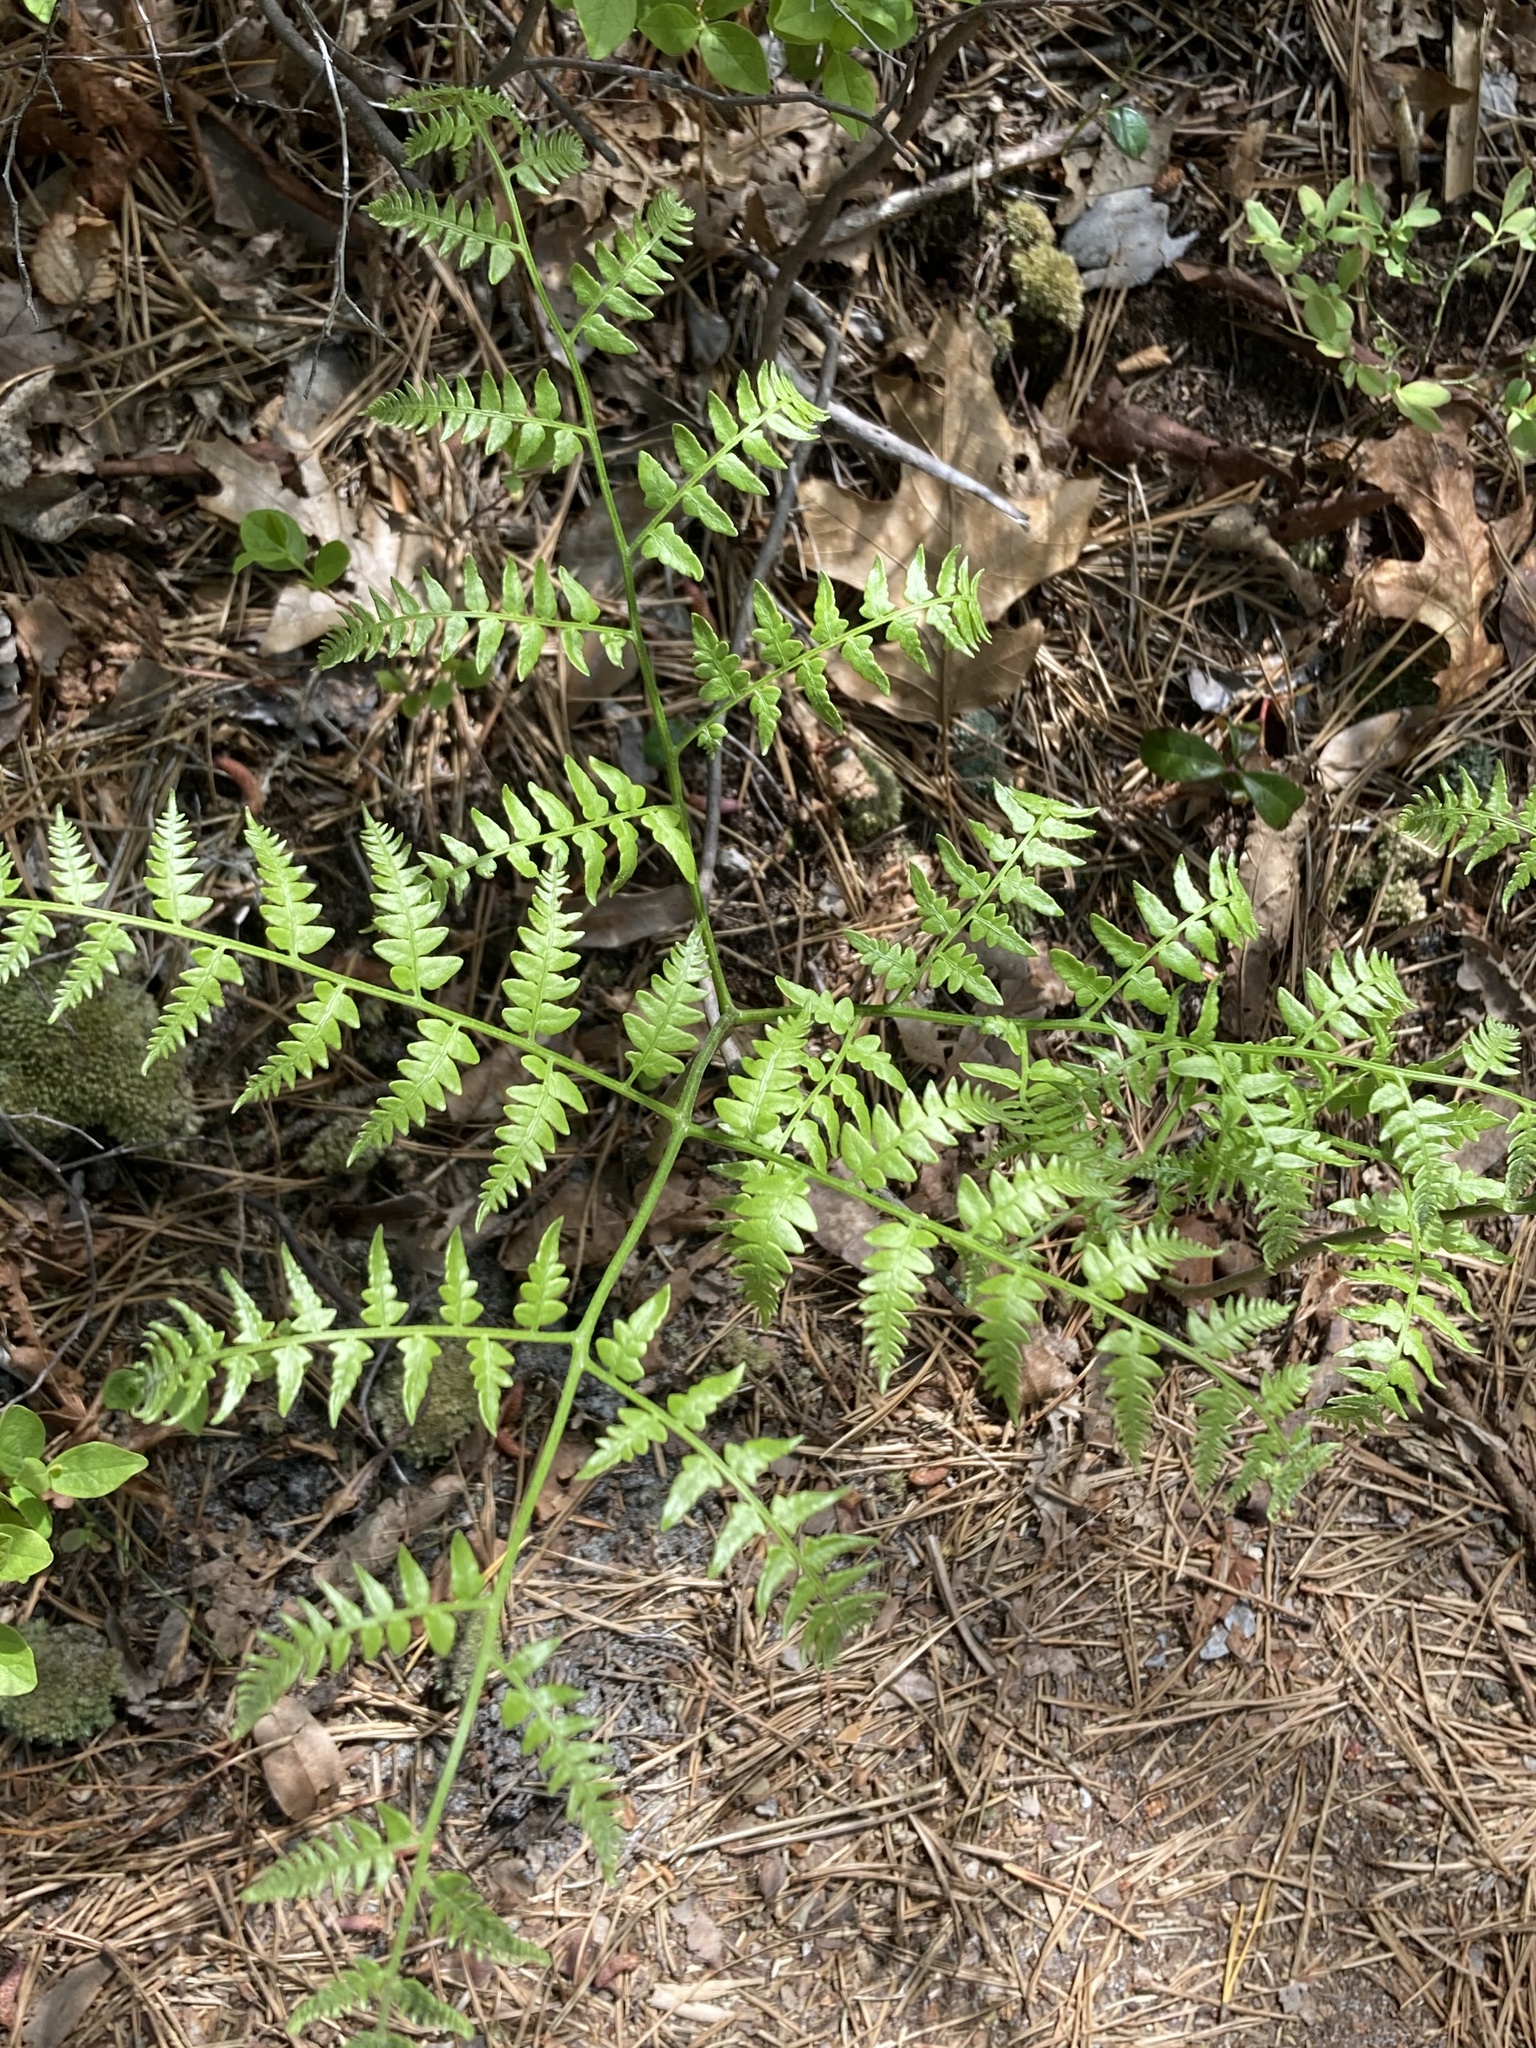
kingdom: Plantae
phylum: Tracheophyta
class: Polypodiopsida
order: Polypodiales
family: Dennstaedtiaceae
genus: Pteridium
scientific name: Pteridium aquilinum
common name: Bracken
